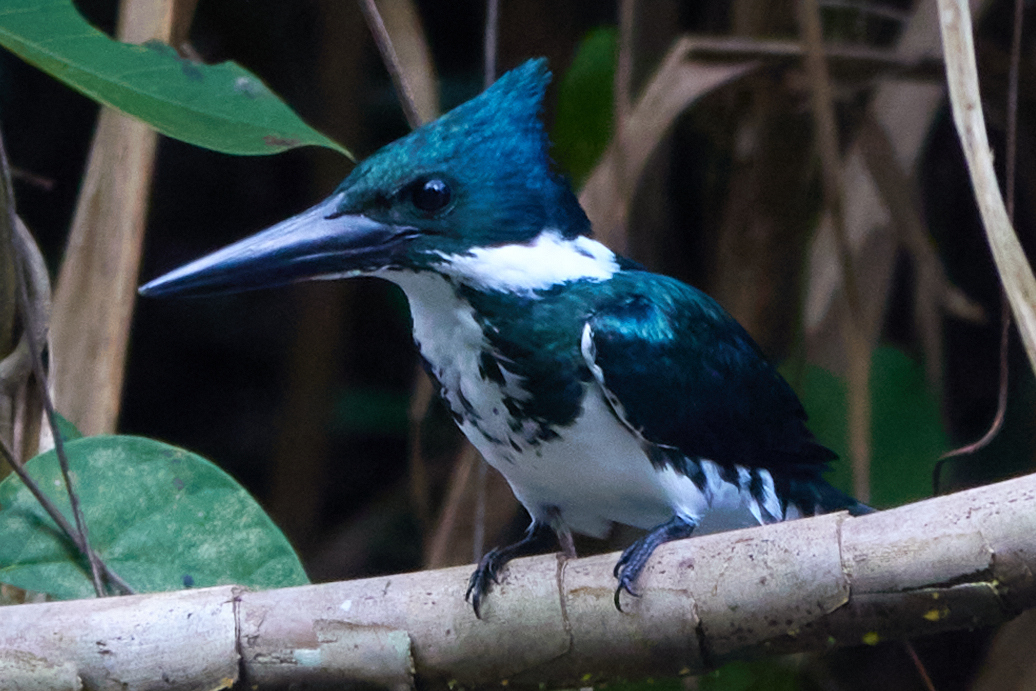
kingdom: Animalia
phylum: Chordata
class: Aves
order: Coraciiformes
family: Alcedinidae
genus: Chloroceryle
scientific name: Chloroceryle amazona
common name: Amazon kingfisher
